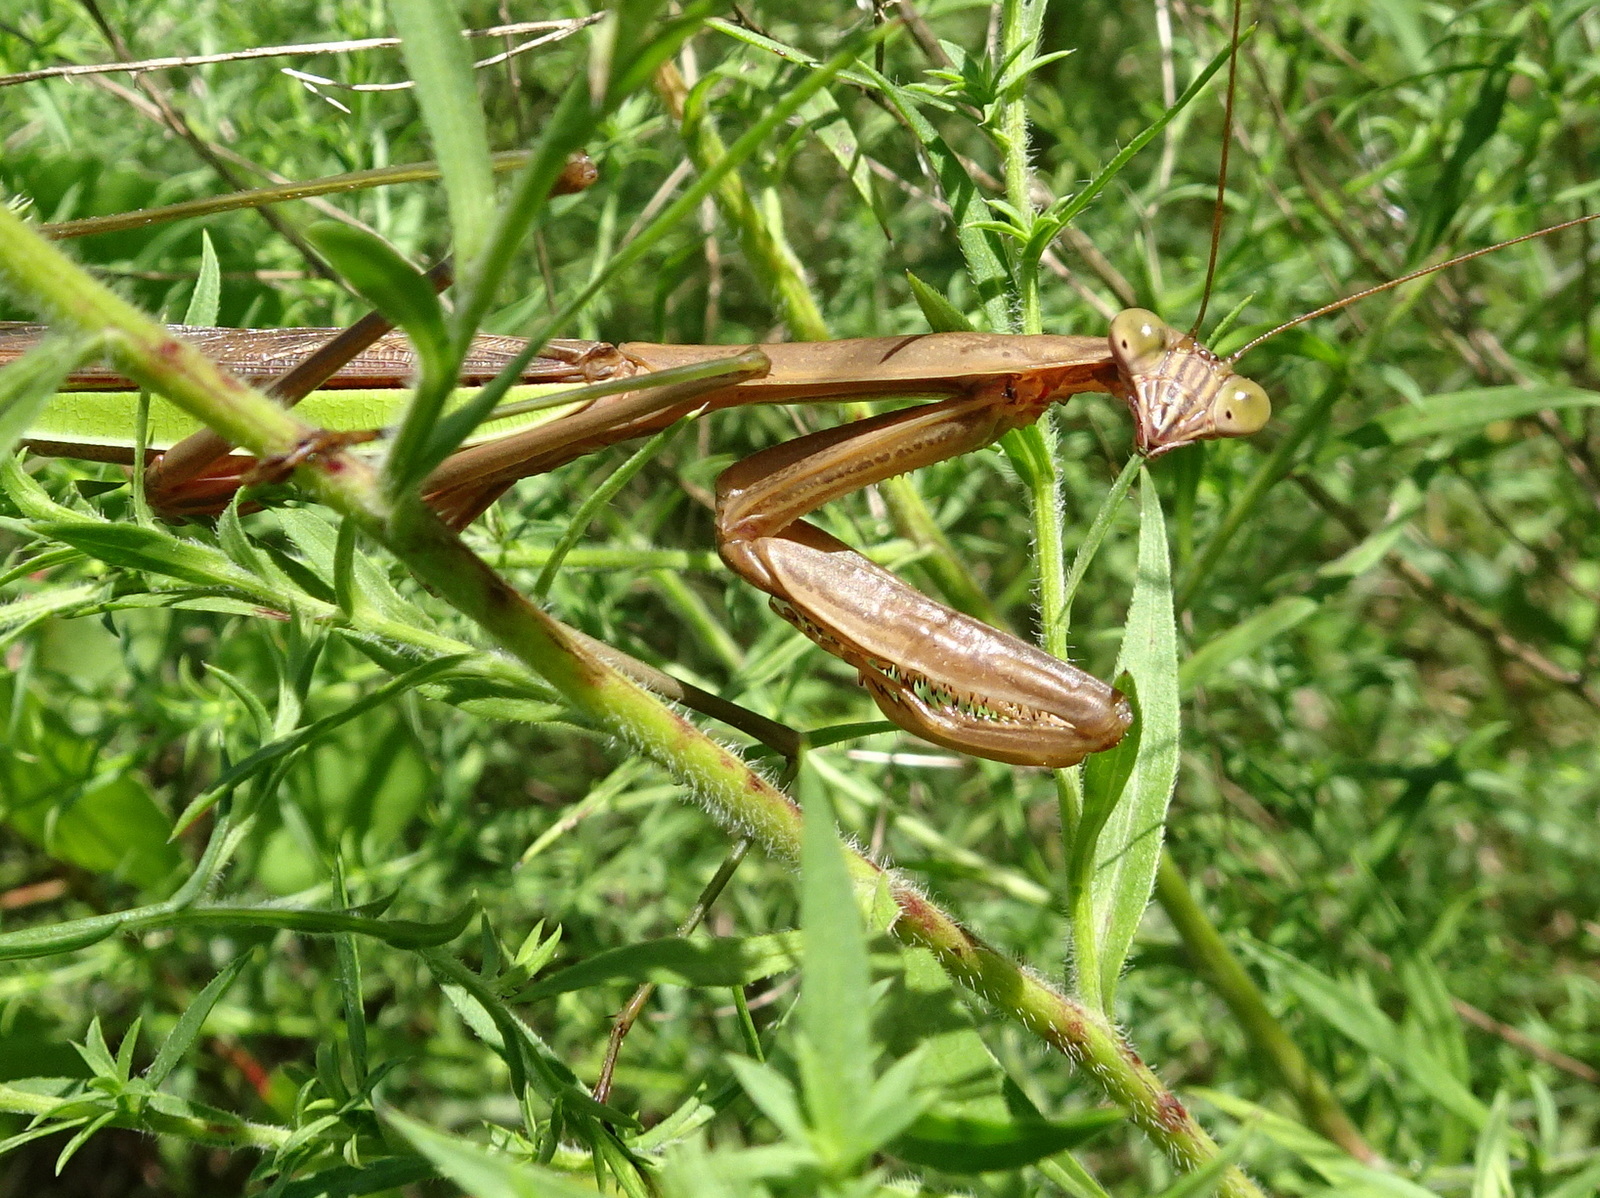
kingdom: Animalia
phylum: Arthropoda
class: Insecta
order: Mantodea
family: Mantidae
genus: Tenodera
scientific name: Tenodera sinensis
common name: Chinese mantis
